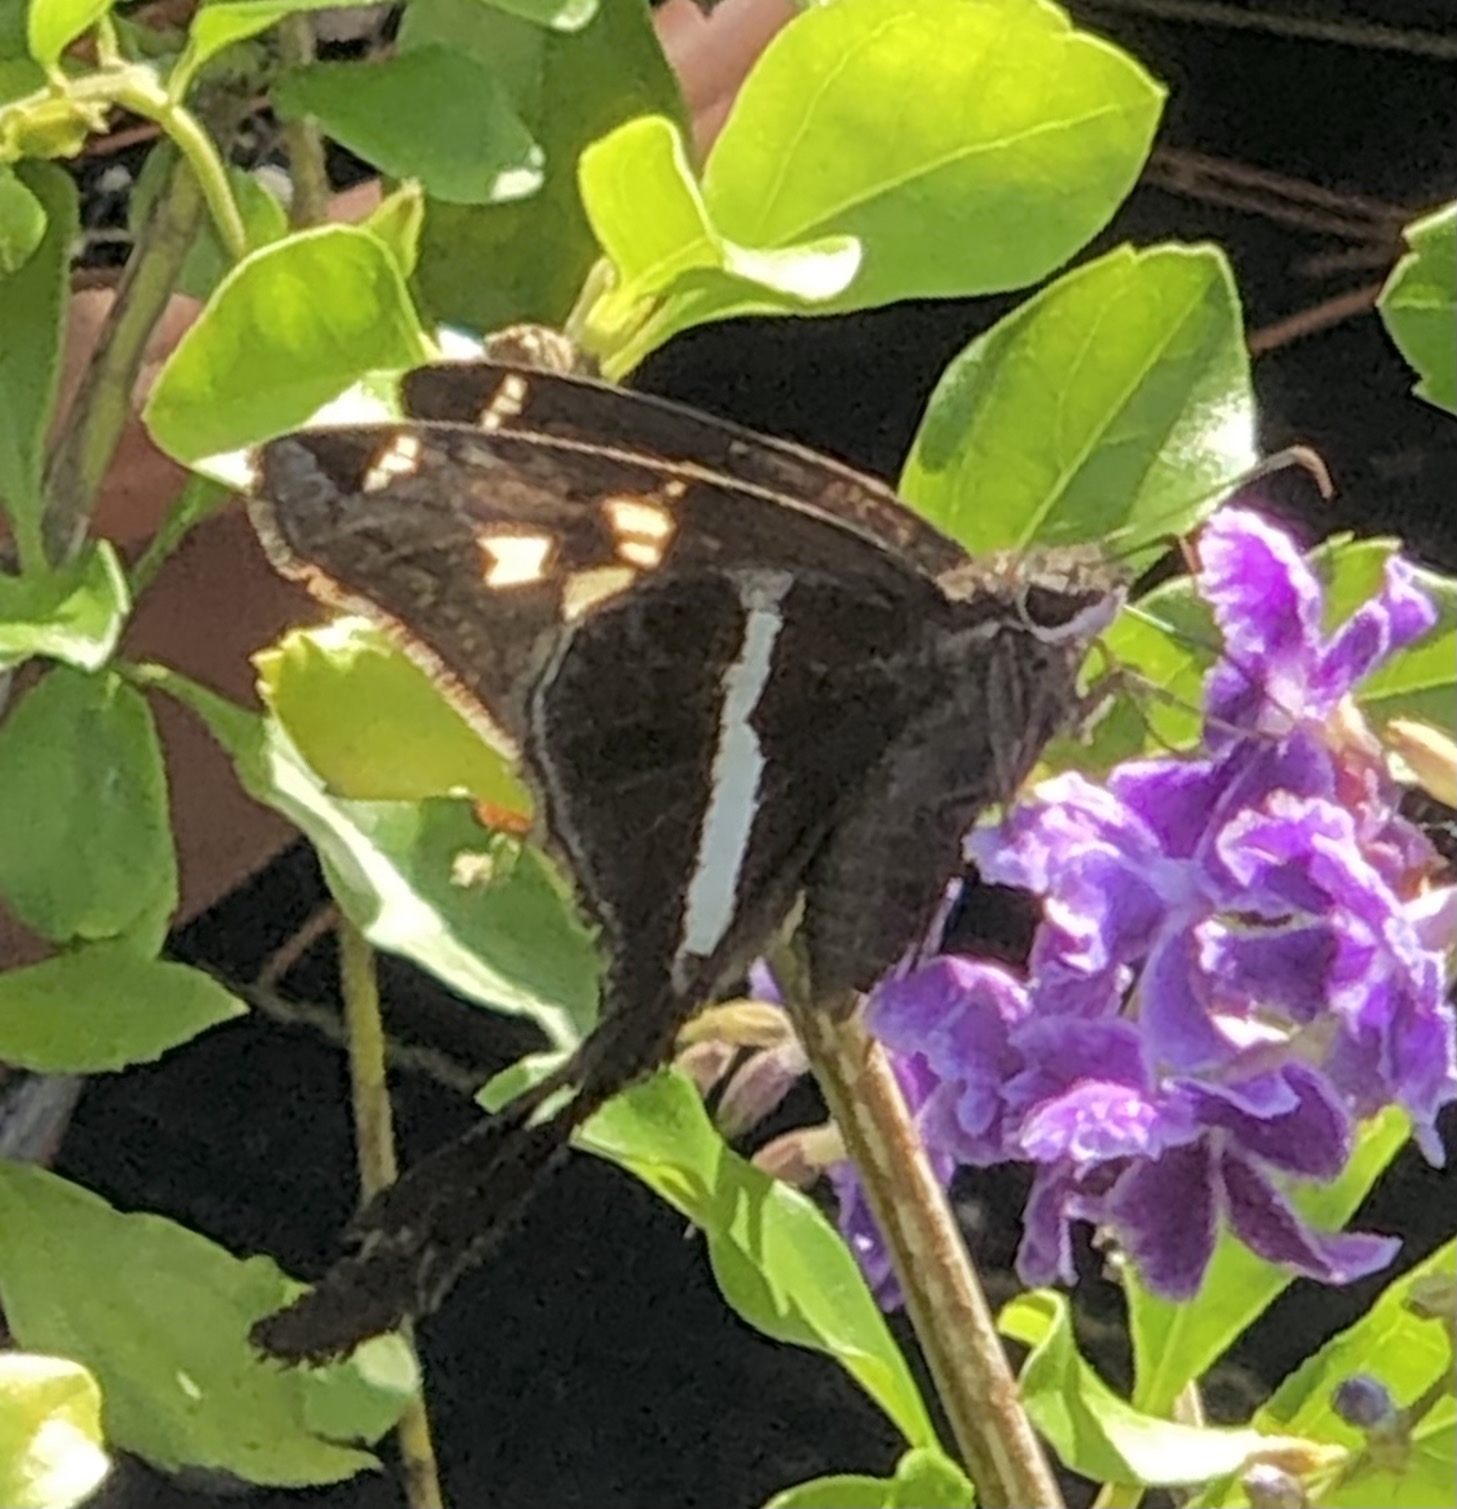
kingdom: Animalia
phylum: Arthropoda
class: Insecta
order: Lepidoptera
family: Hesperiidae
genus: Chioides
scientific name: Chioides catillus
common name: Silverbanded skipper
